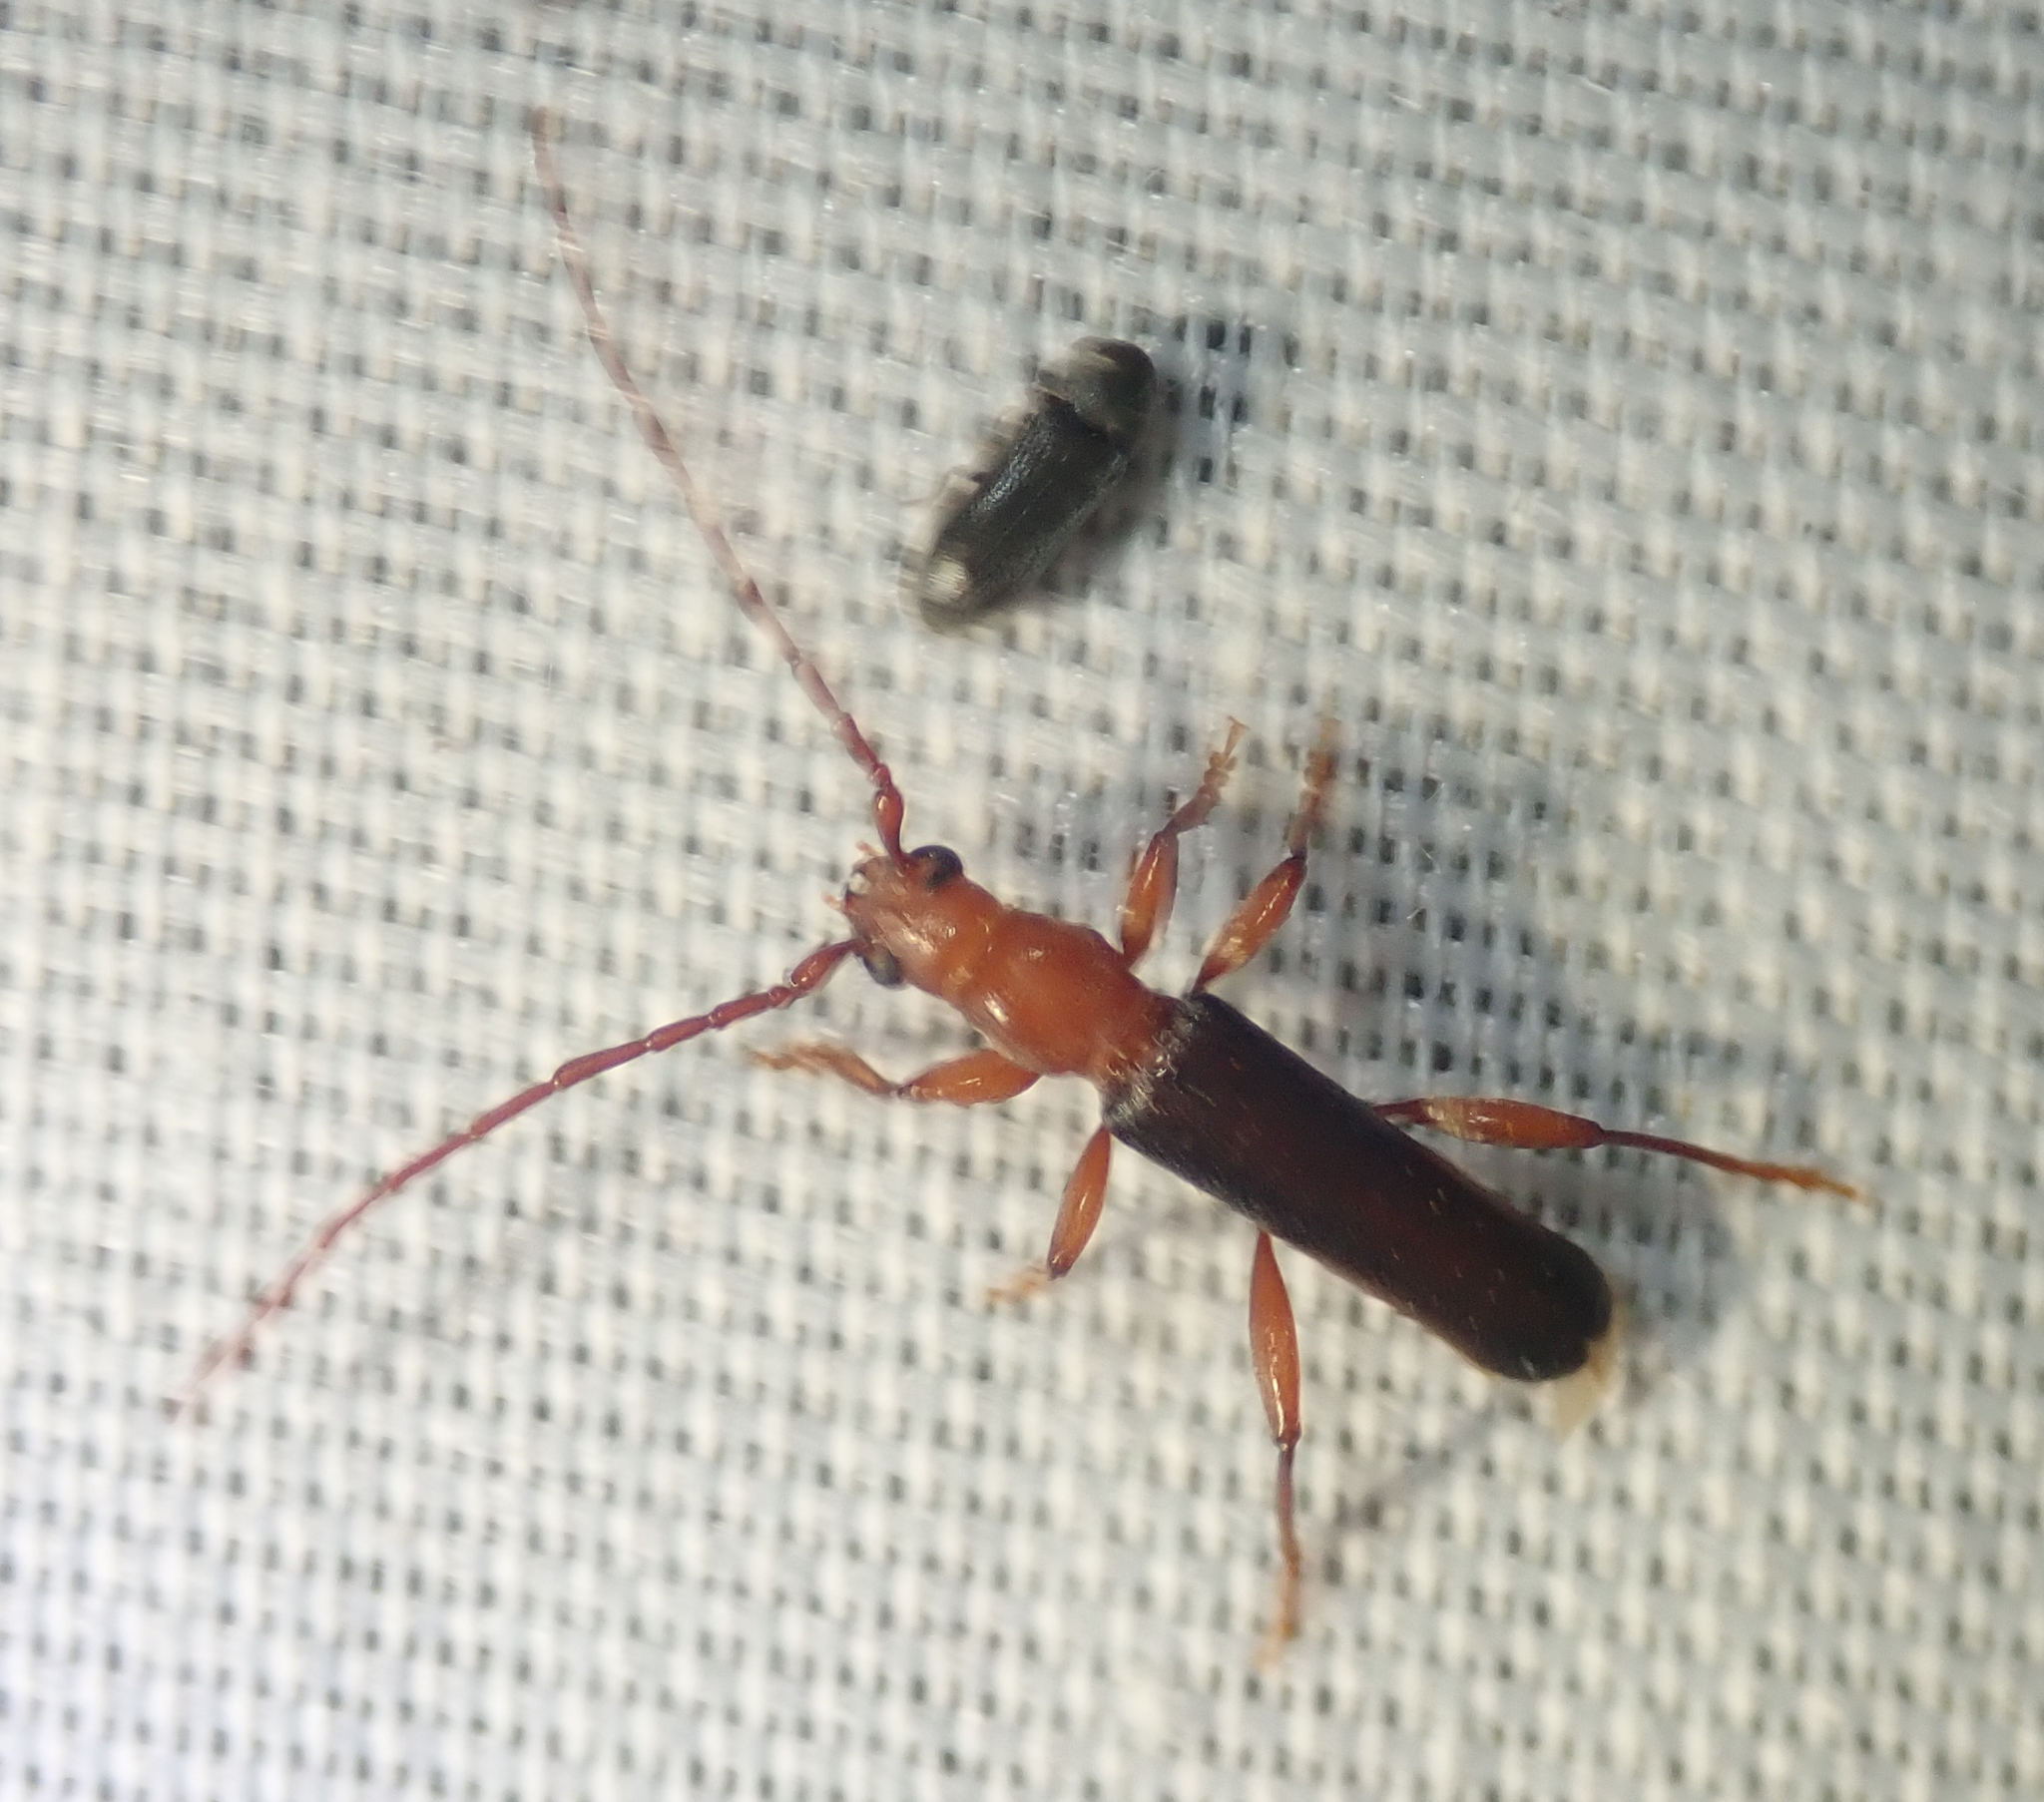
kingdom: Animalia
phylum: Arthropoda
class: Insecta
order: Coleoptera
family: Cerambycidae
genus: Pseudossibia
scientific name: Pseudossibia obscurata
